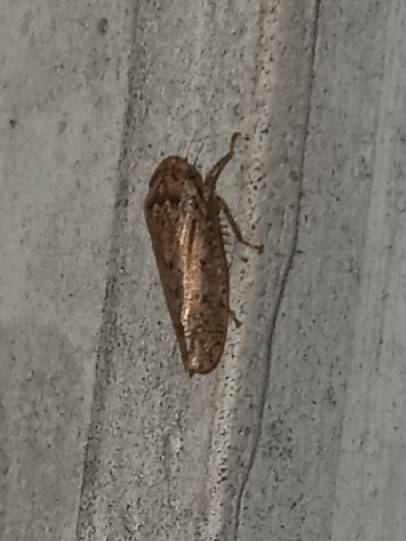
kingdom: Animalia
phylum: Arthropoda
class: Insecta
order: Hemiptera
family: Cicadellidae
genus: Curtara
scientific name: Curtara insularis
